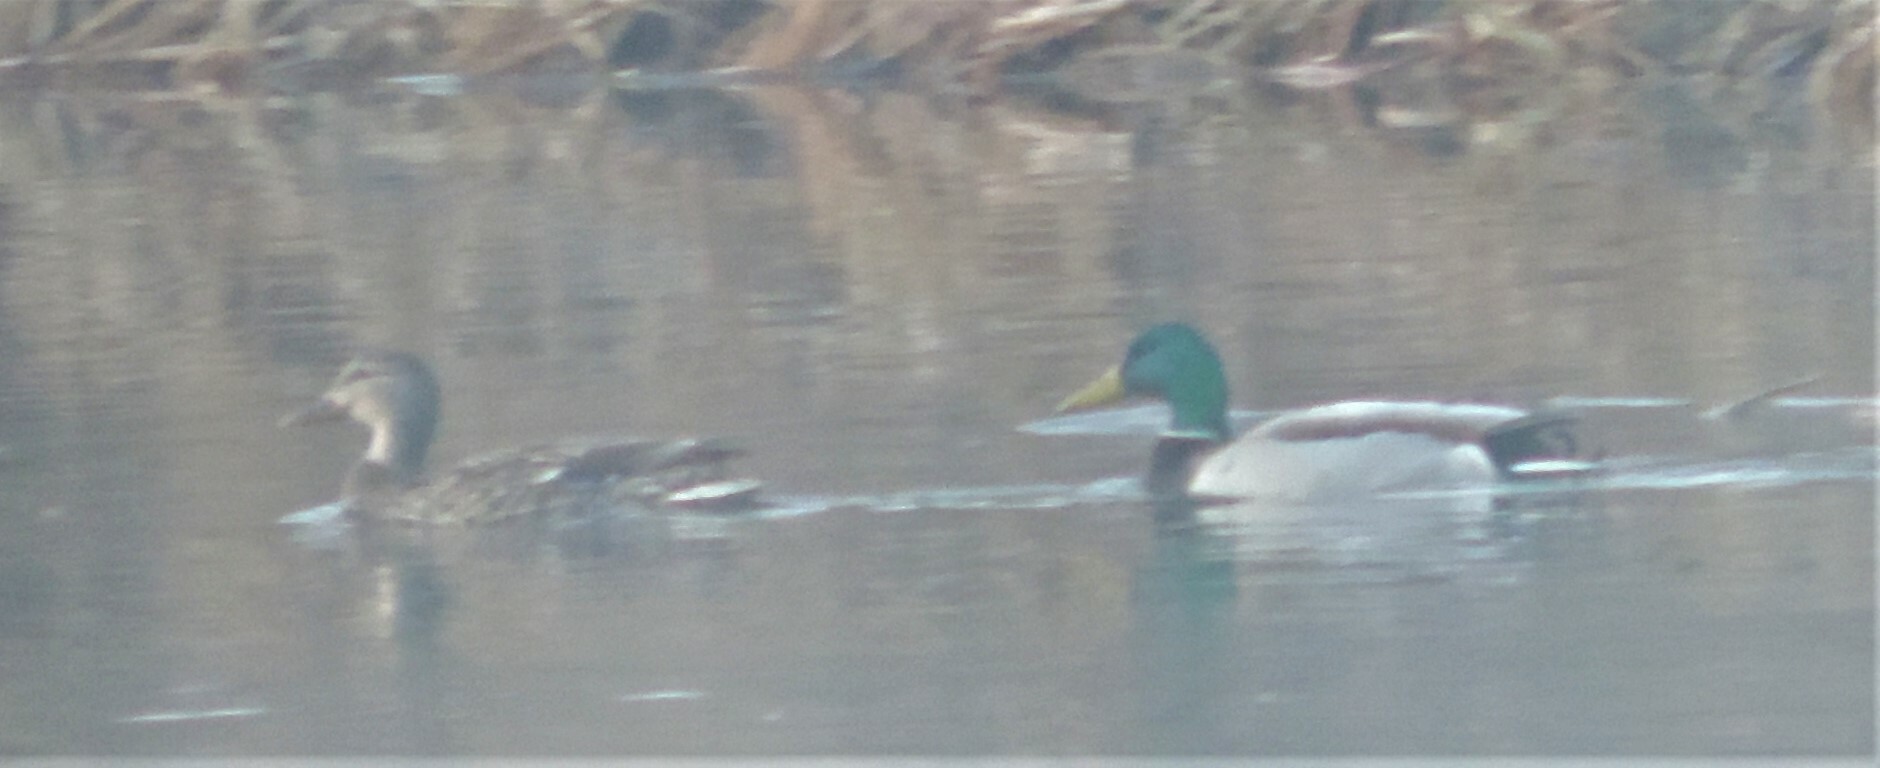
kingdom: Animalia
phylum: Chordata
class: Aves
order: Anseriformes
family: Anatidae
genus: Anas
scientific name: Anas platyrhynchos
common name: Mallard
